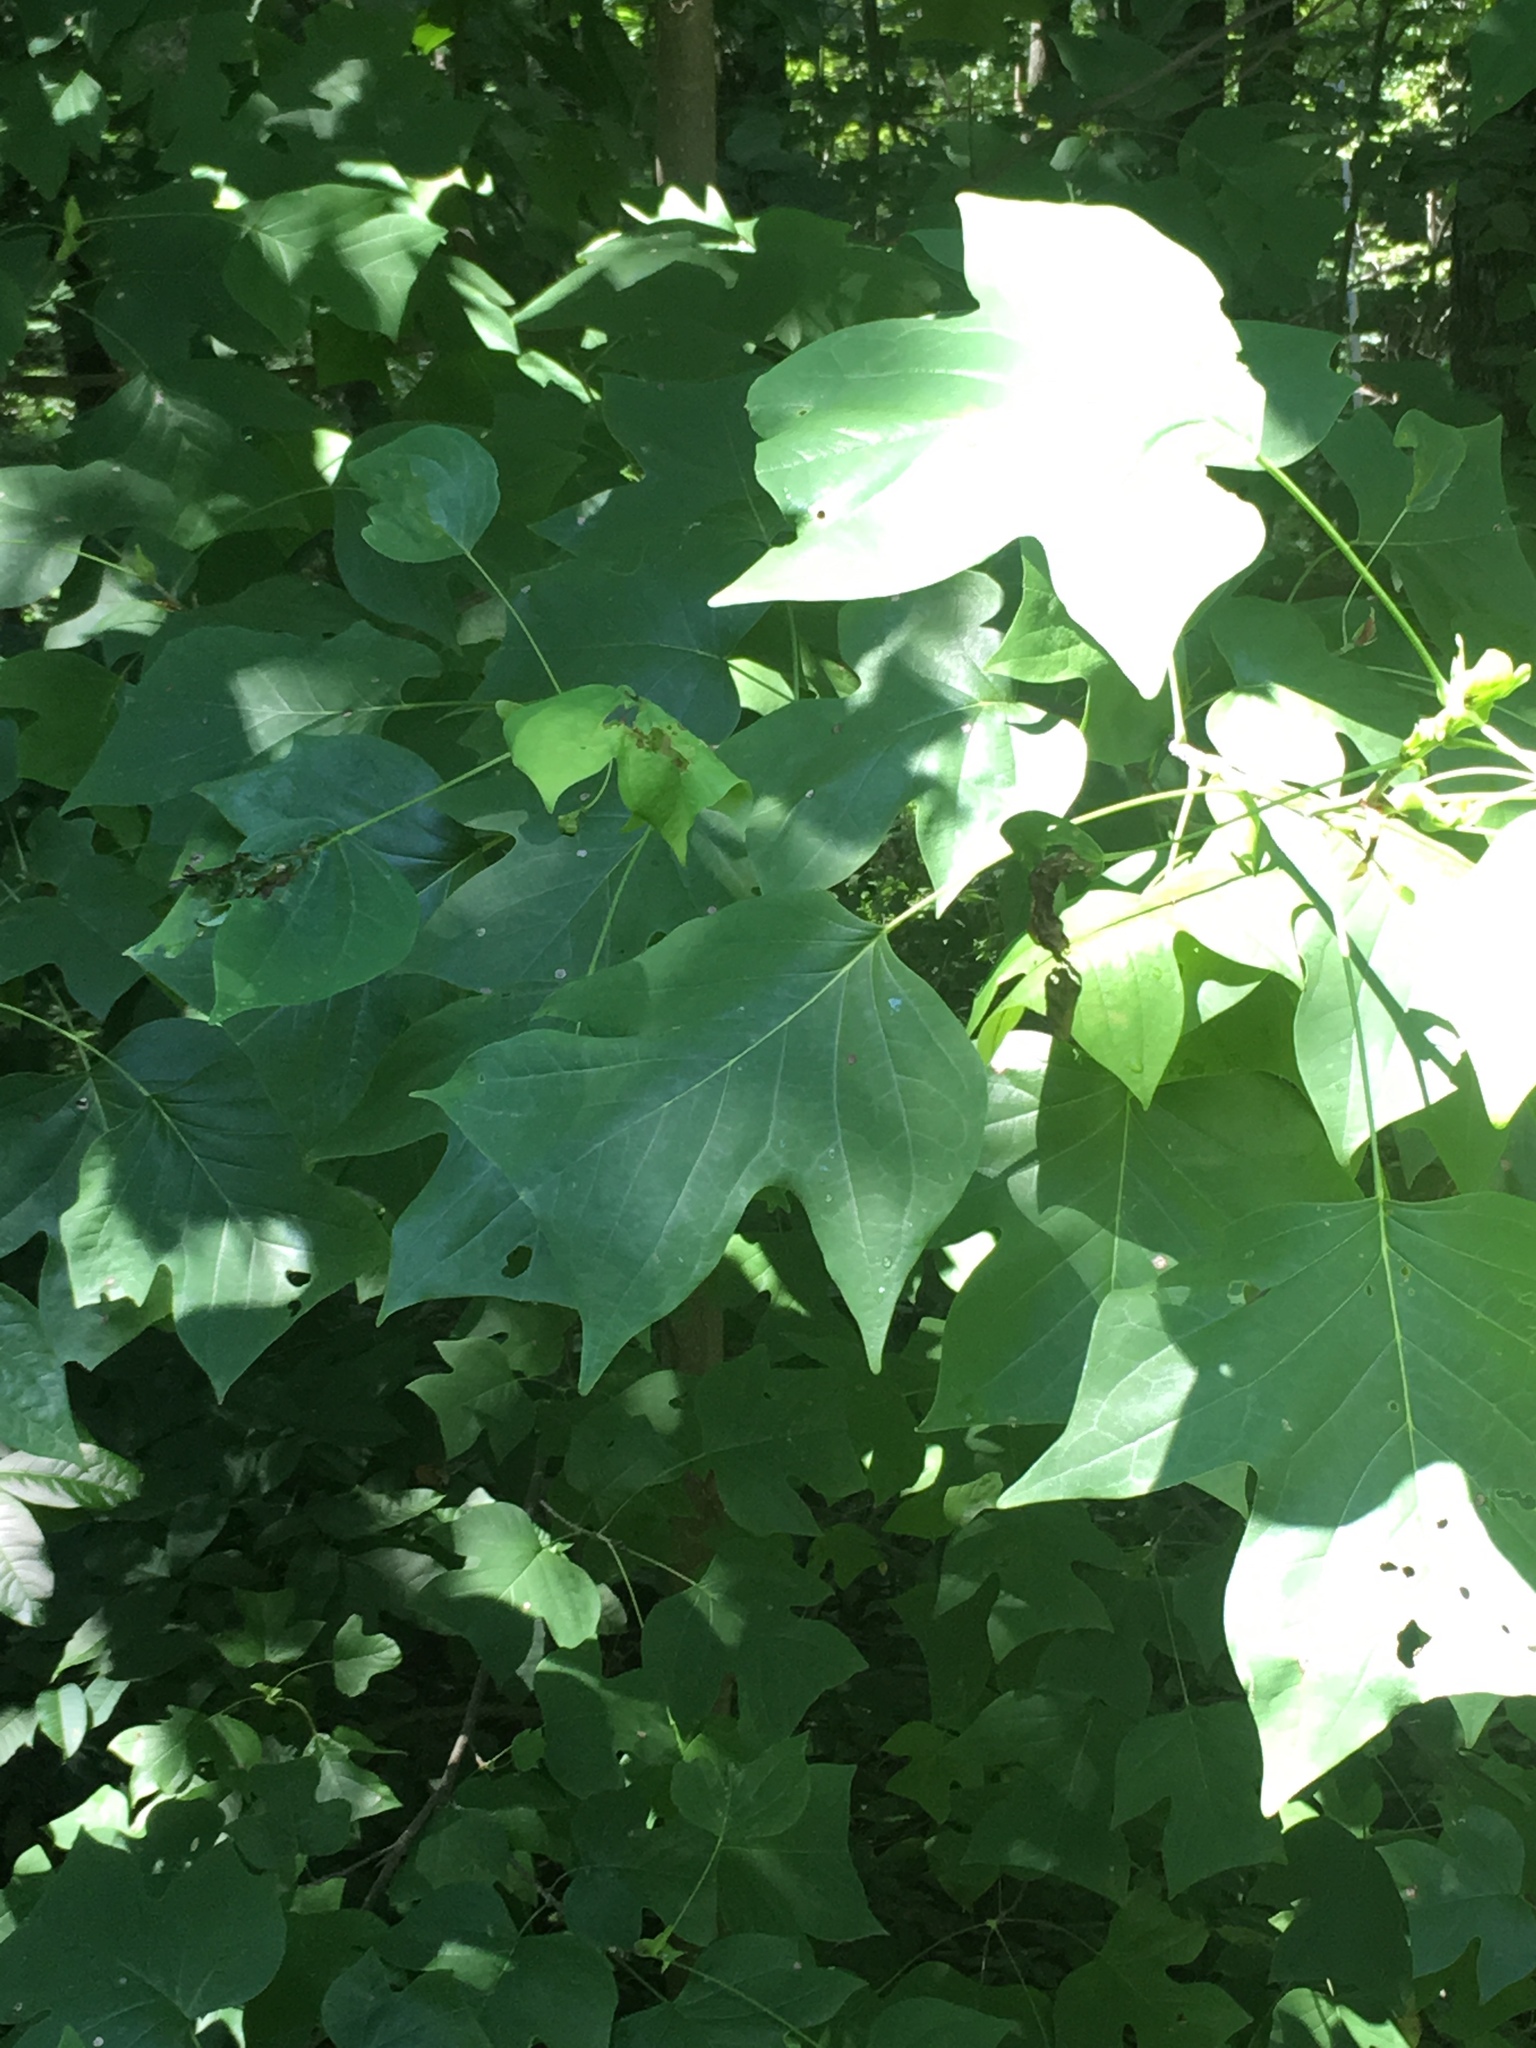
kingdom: Plantae
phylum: Tracheophyta
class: Magnoliopsida
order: Magnoliales
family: Magnoliaceae
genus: Liriodendron
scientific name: Liriodendron tulipifera
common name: Tulip tree
